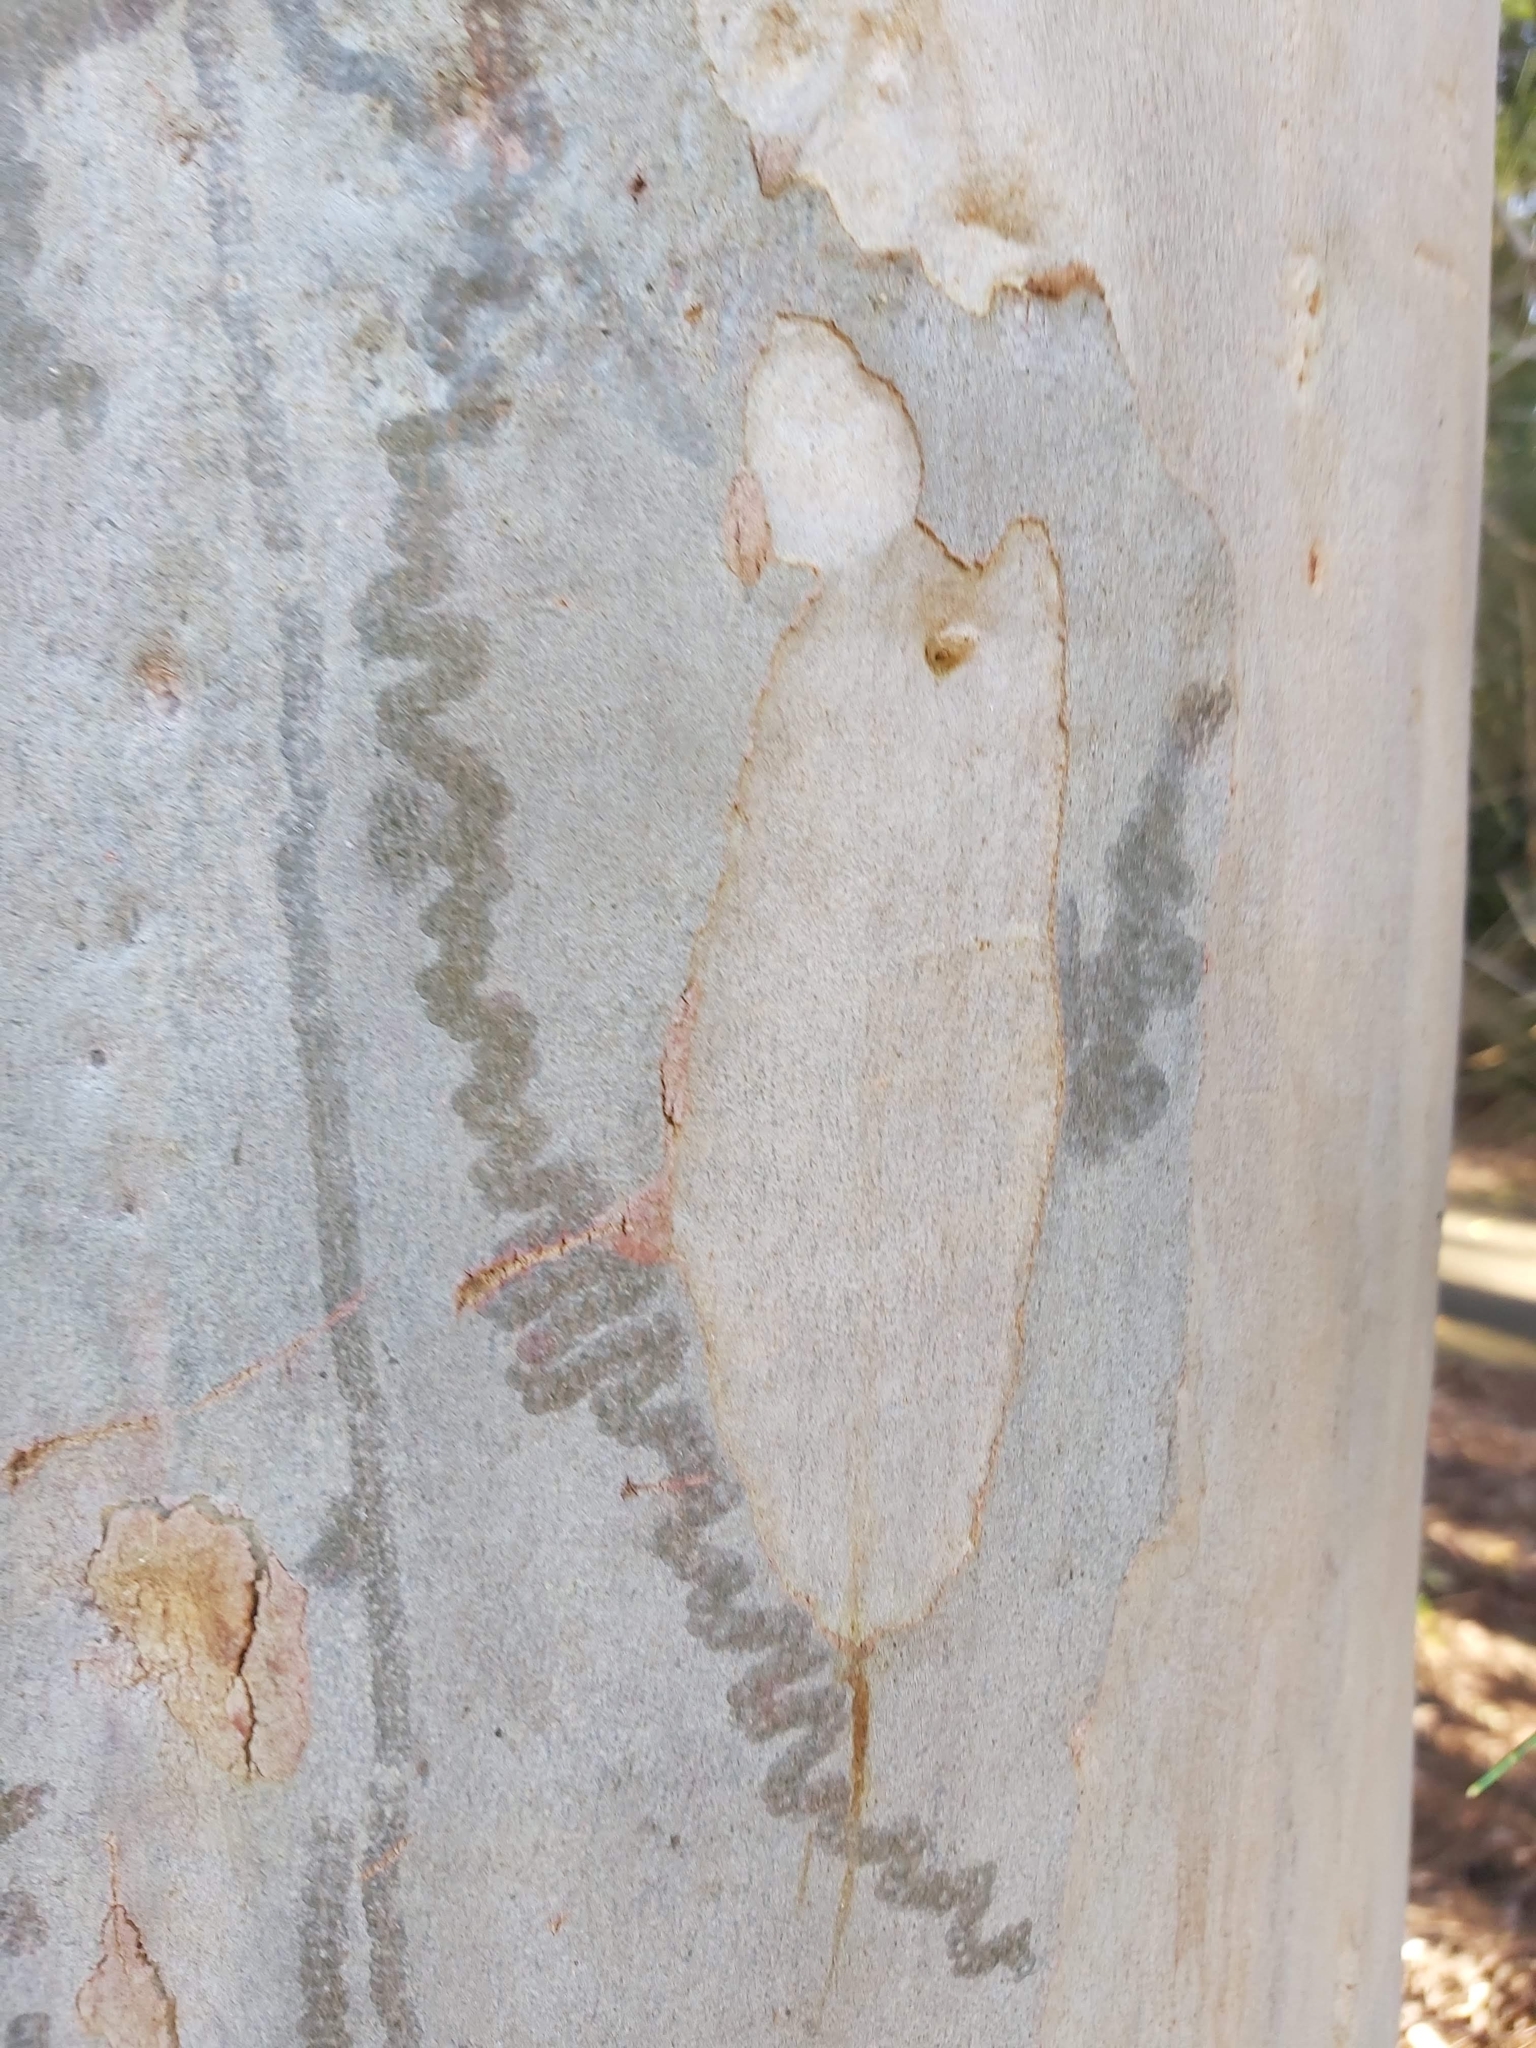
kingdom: Animalia
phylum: Mollusca
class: Gastropoda
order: Stylommatophora
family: Athoracophoridae
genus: Triboniophorus
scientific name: Triboniophorus graeffei
